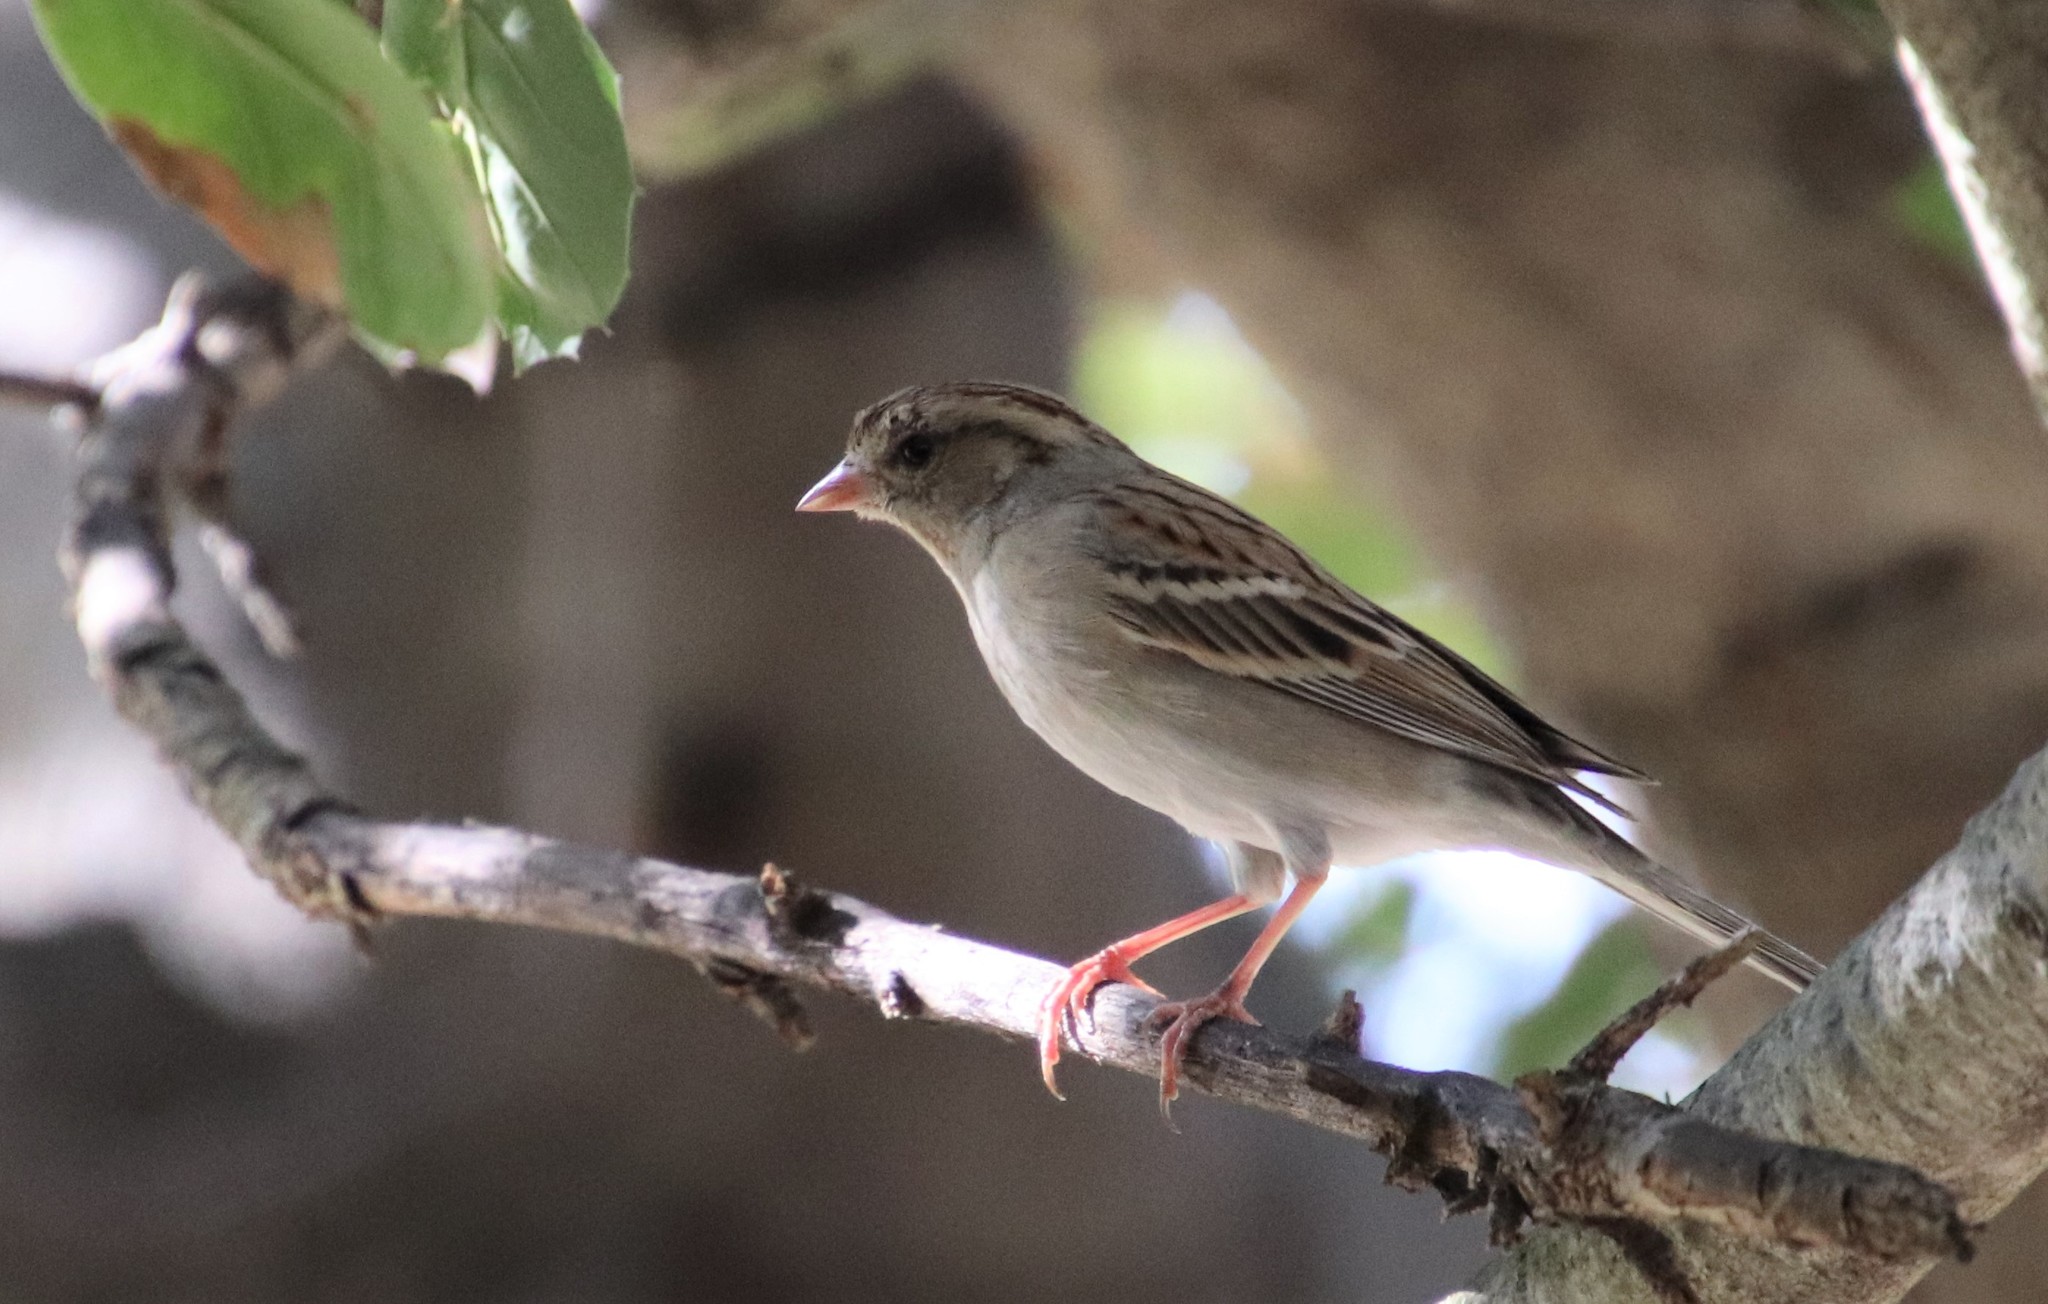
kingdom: Animalia
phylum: Chordata
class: Aves
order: Passeriformes
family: Passerellidae
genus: Spizella
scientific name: Spizella passerina
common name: Chipping sparrow
